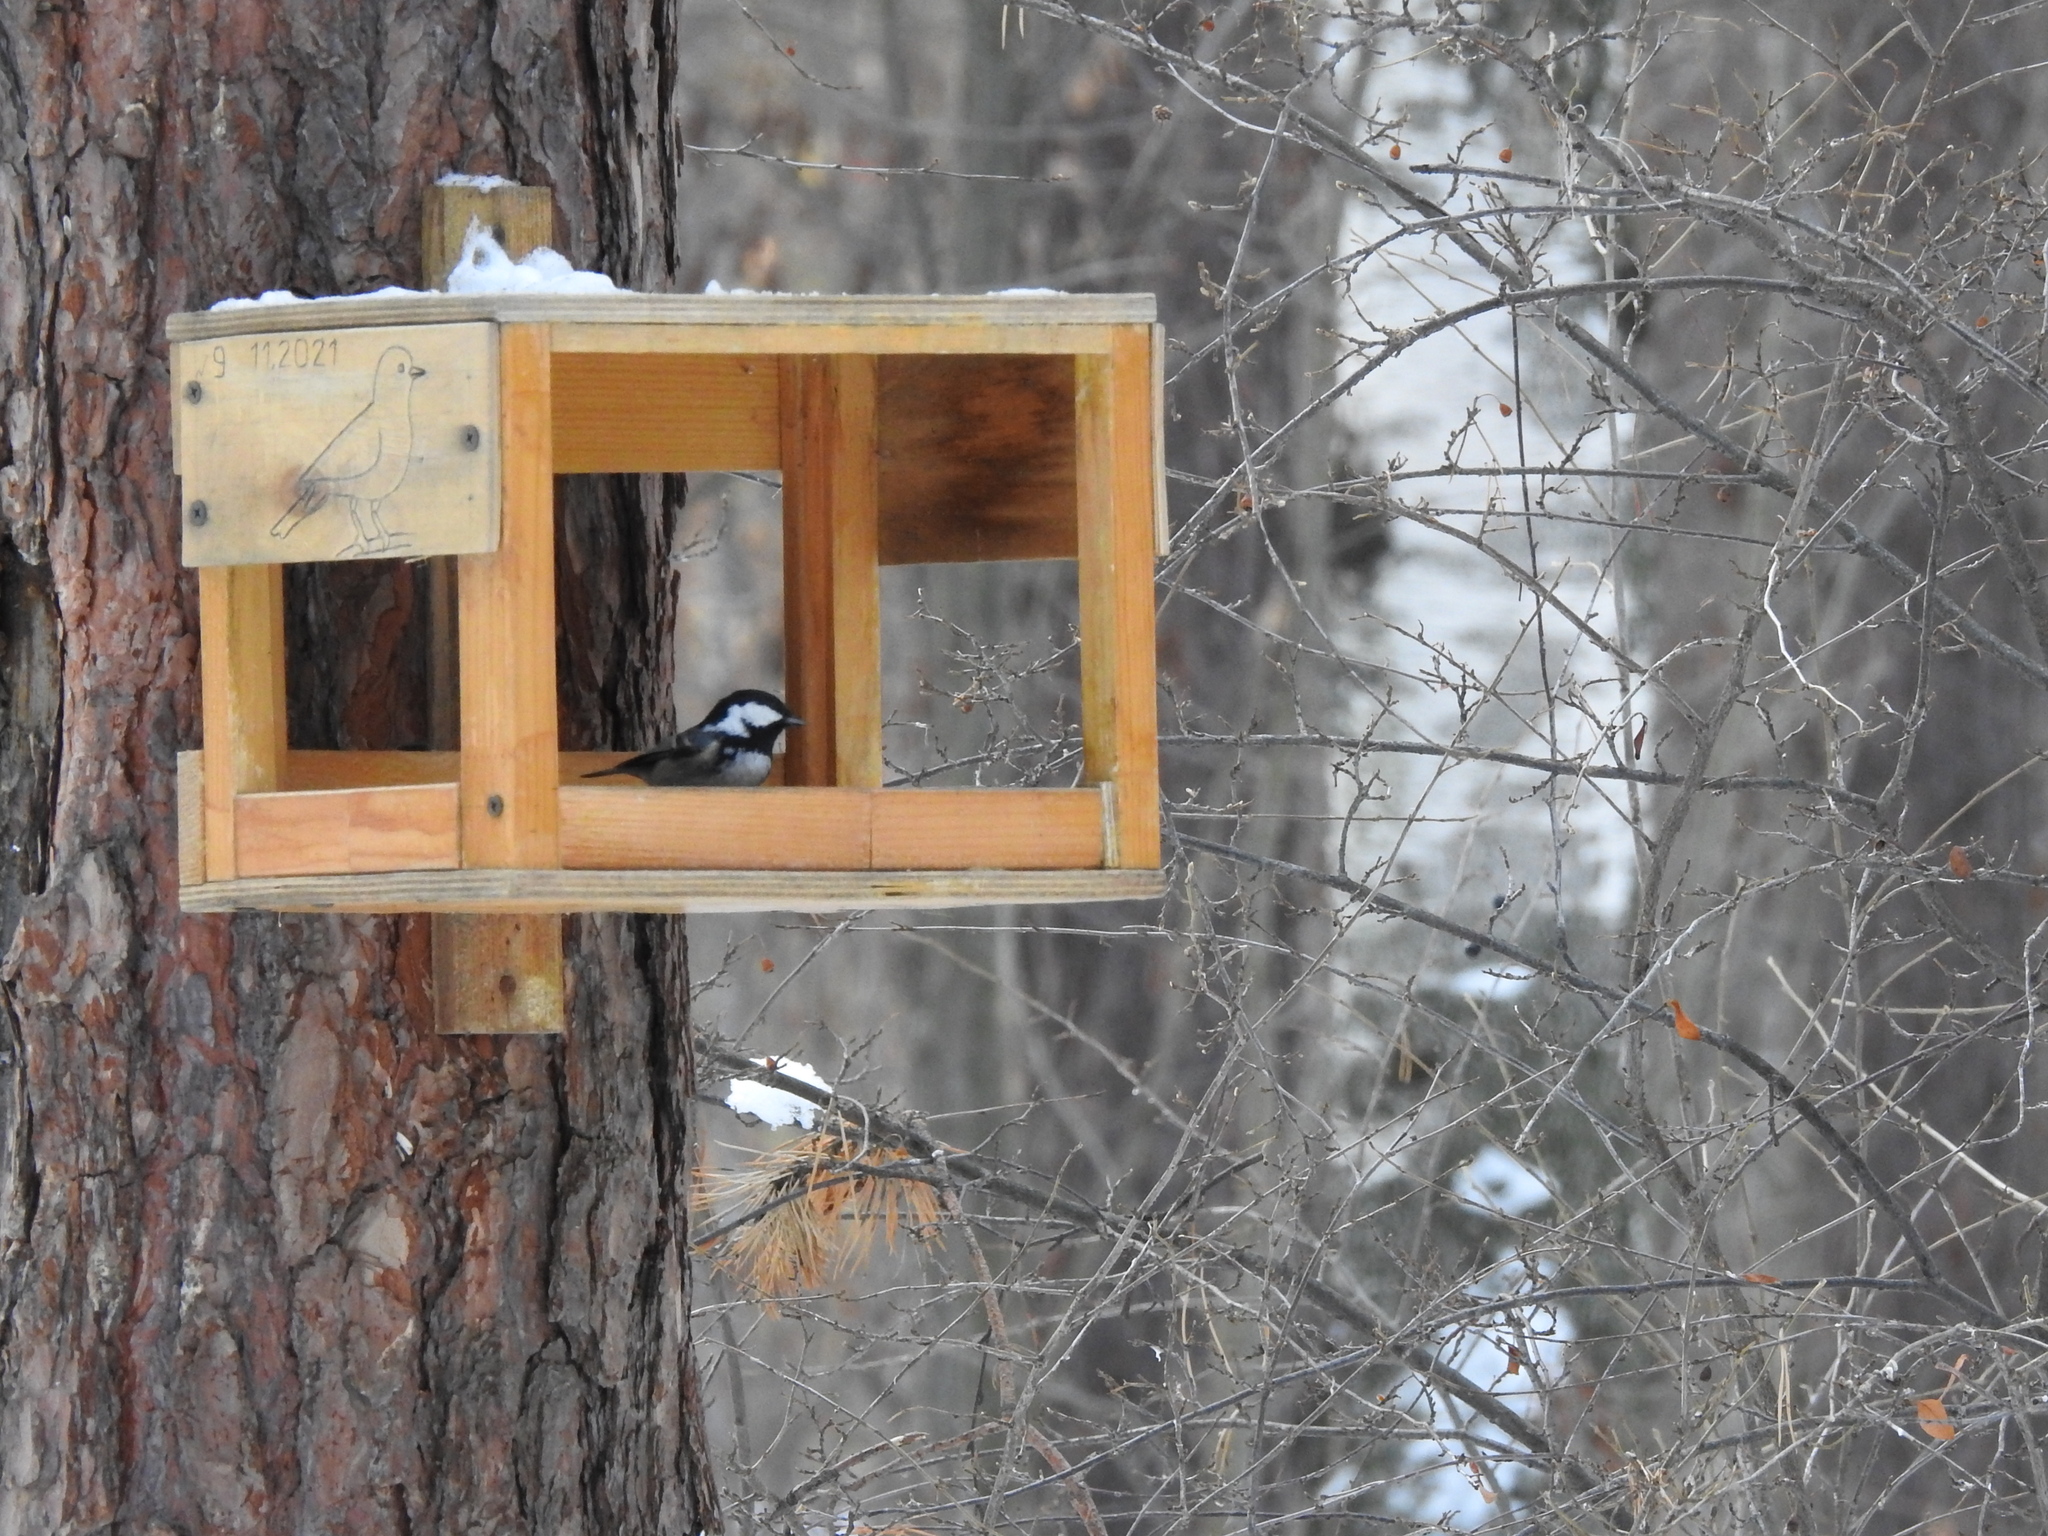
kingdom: Animalia
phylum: Chordata
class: Aves
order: Passeriformes
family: Paridae
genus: Periparus
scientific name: Periparus ater
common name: Coal tit
